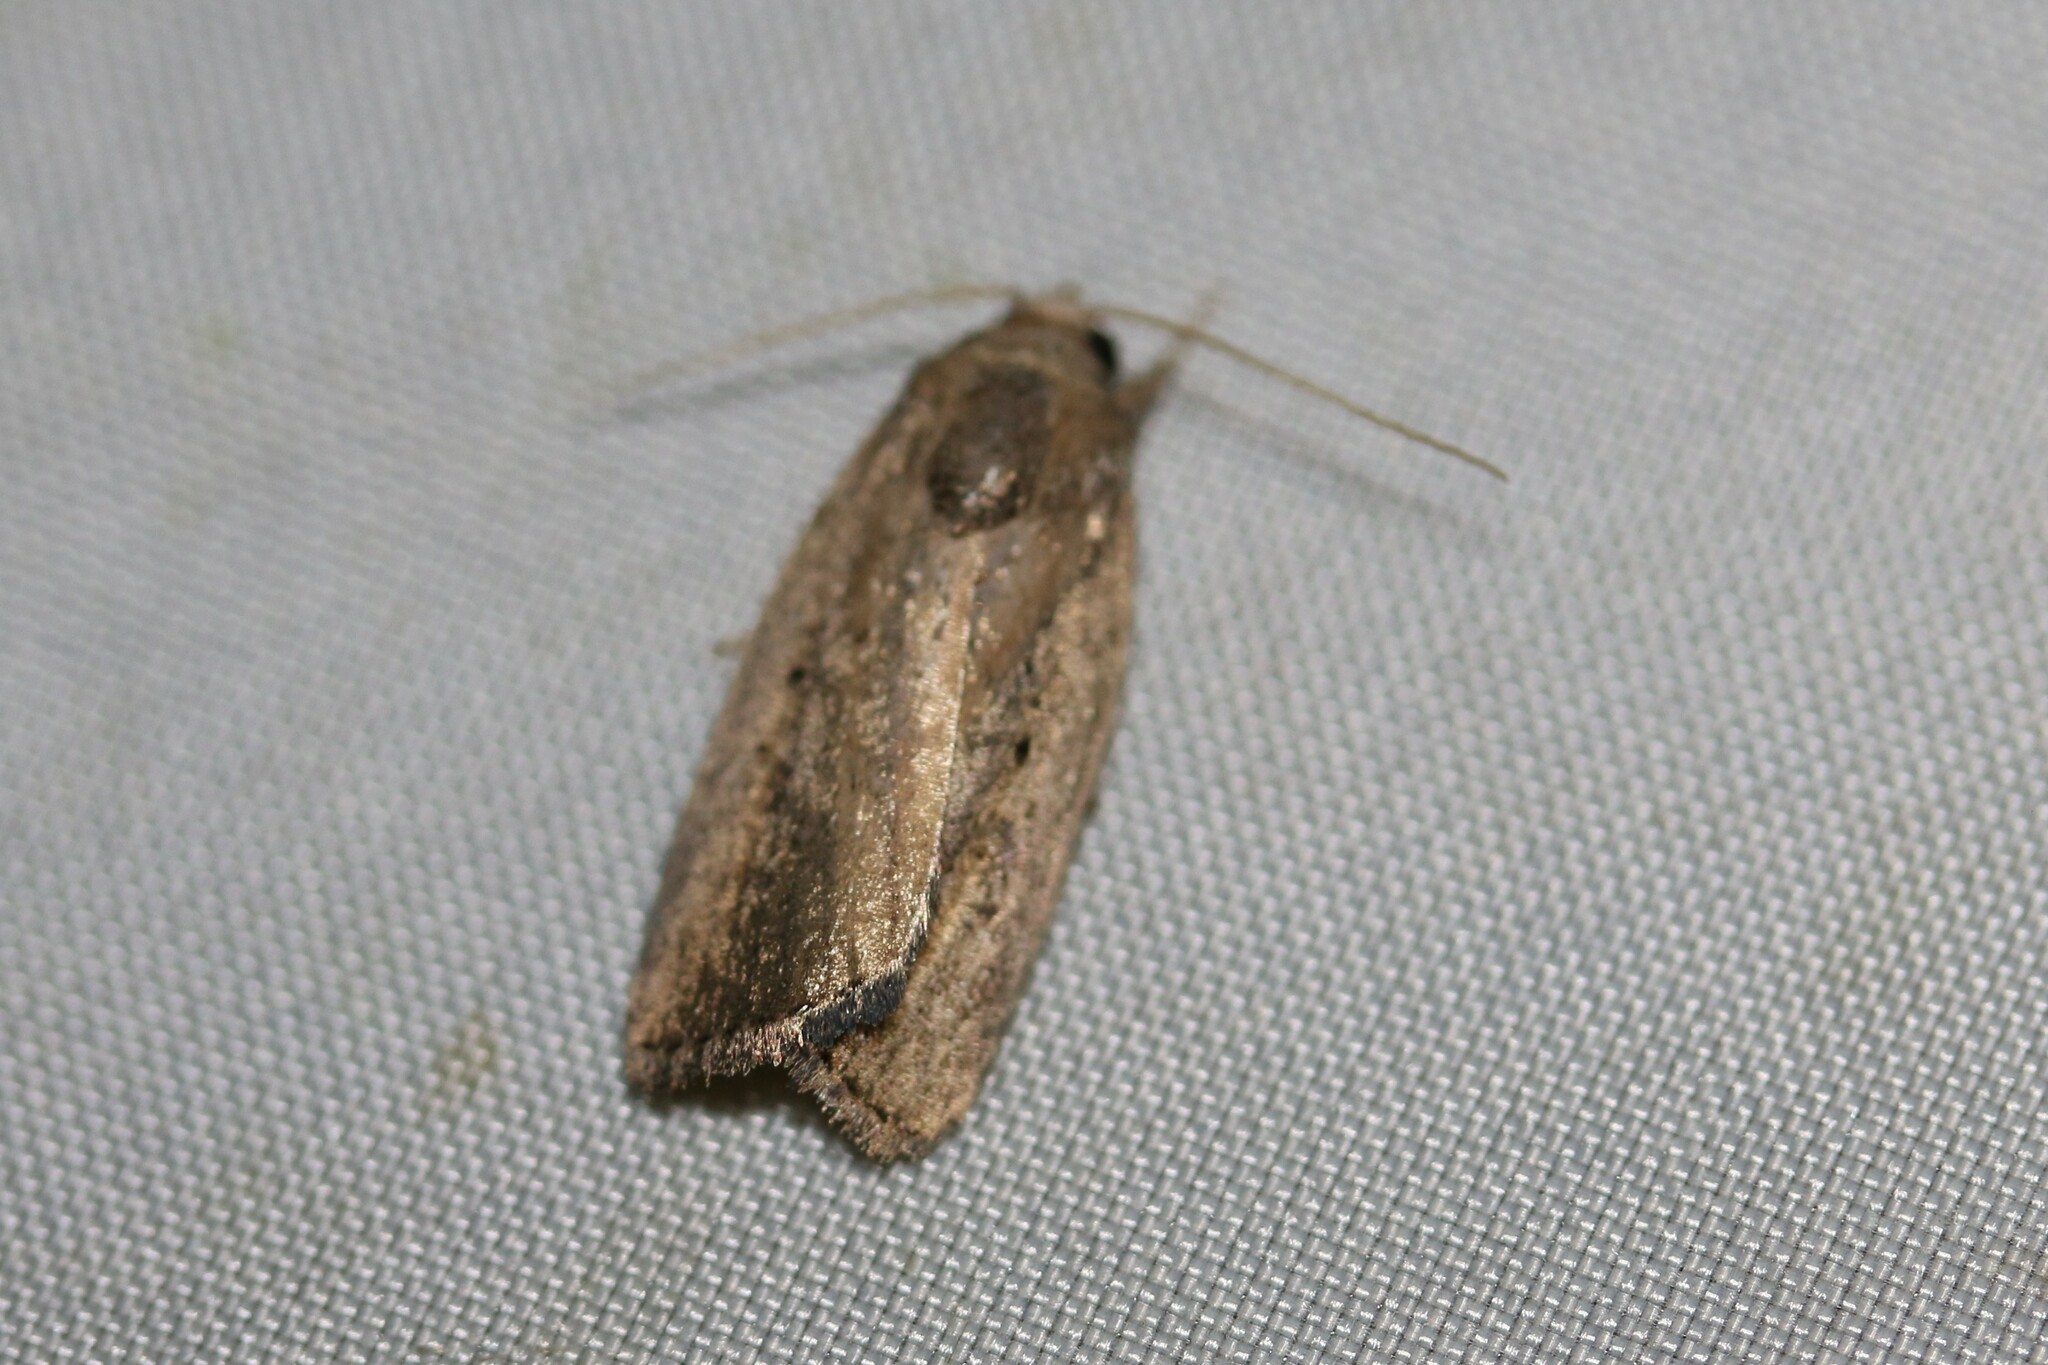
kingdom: Animalia
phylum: Arthropoda
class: Insecta
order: Lepidoptera
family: Noctuidae
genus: Athetis
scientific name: Athetis hospes
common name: Porter's rustic
